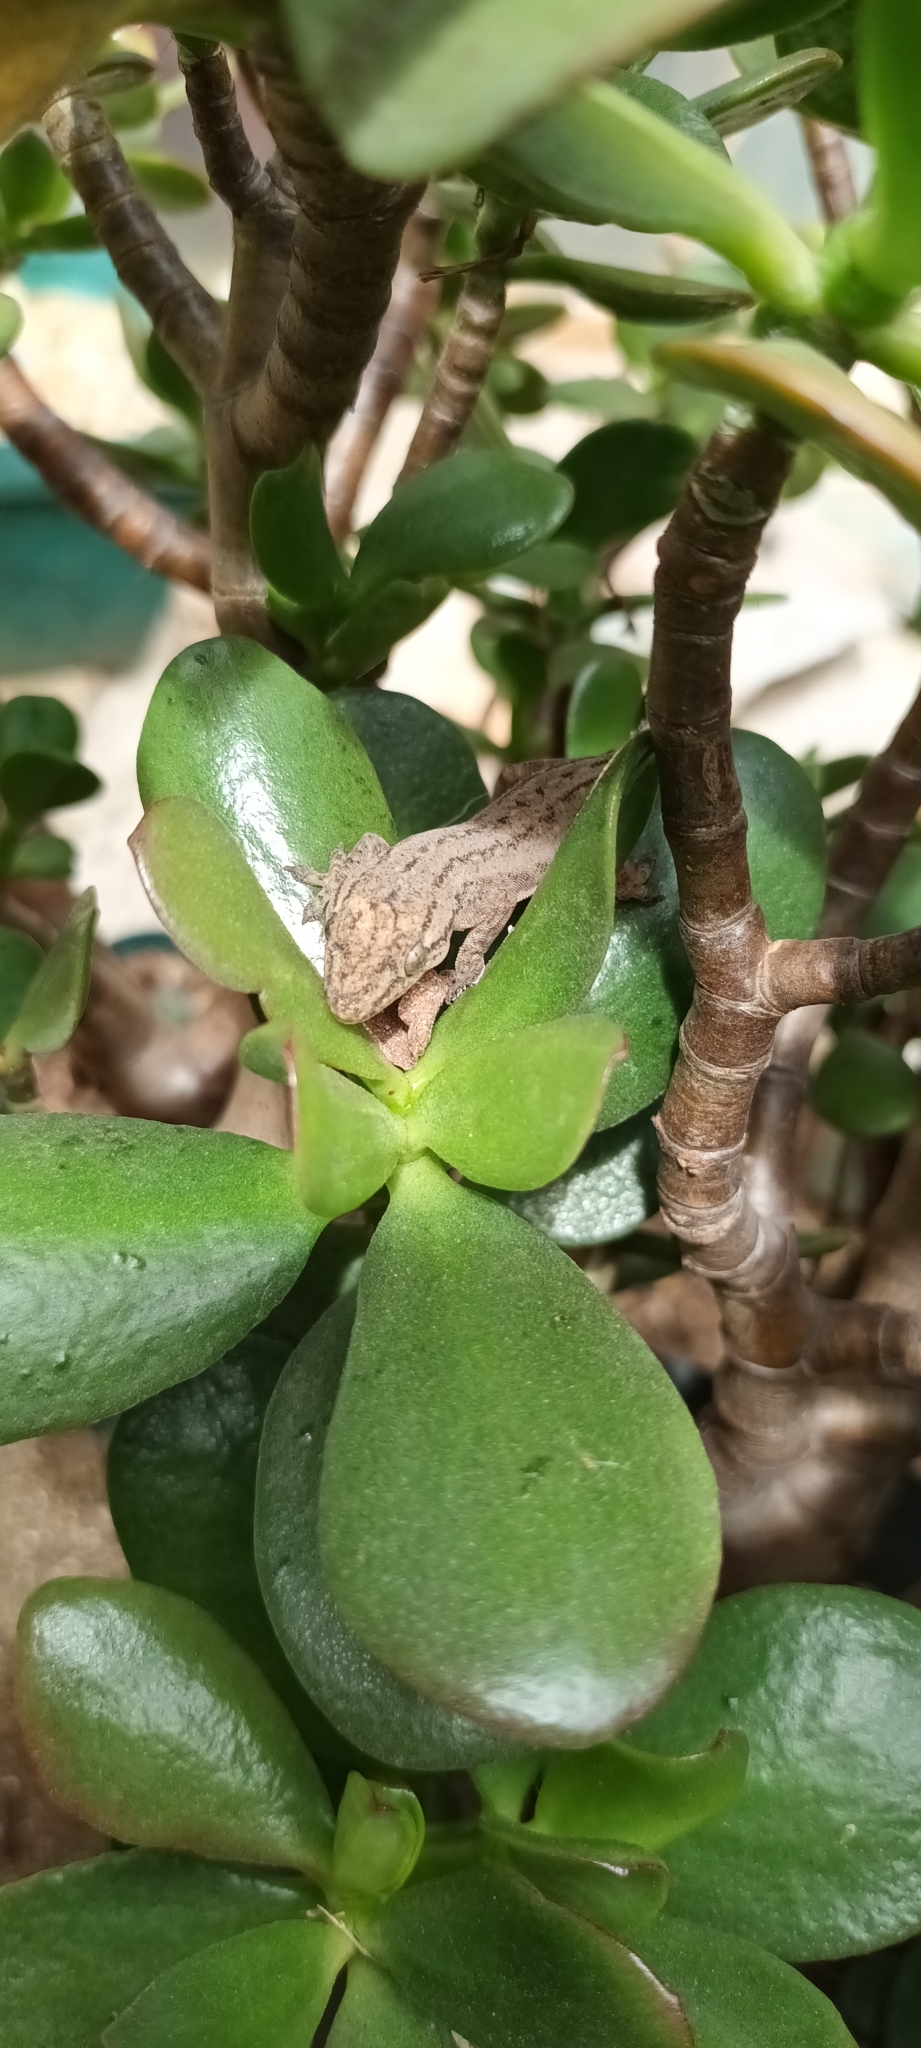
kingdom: Animalia
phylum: Chordata
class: Squamata
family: Gekkonidae
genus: Hemidactylus
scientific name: Hemidactylus frenatus
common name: Common house gecko
